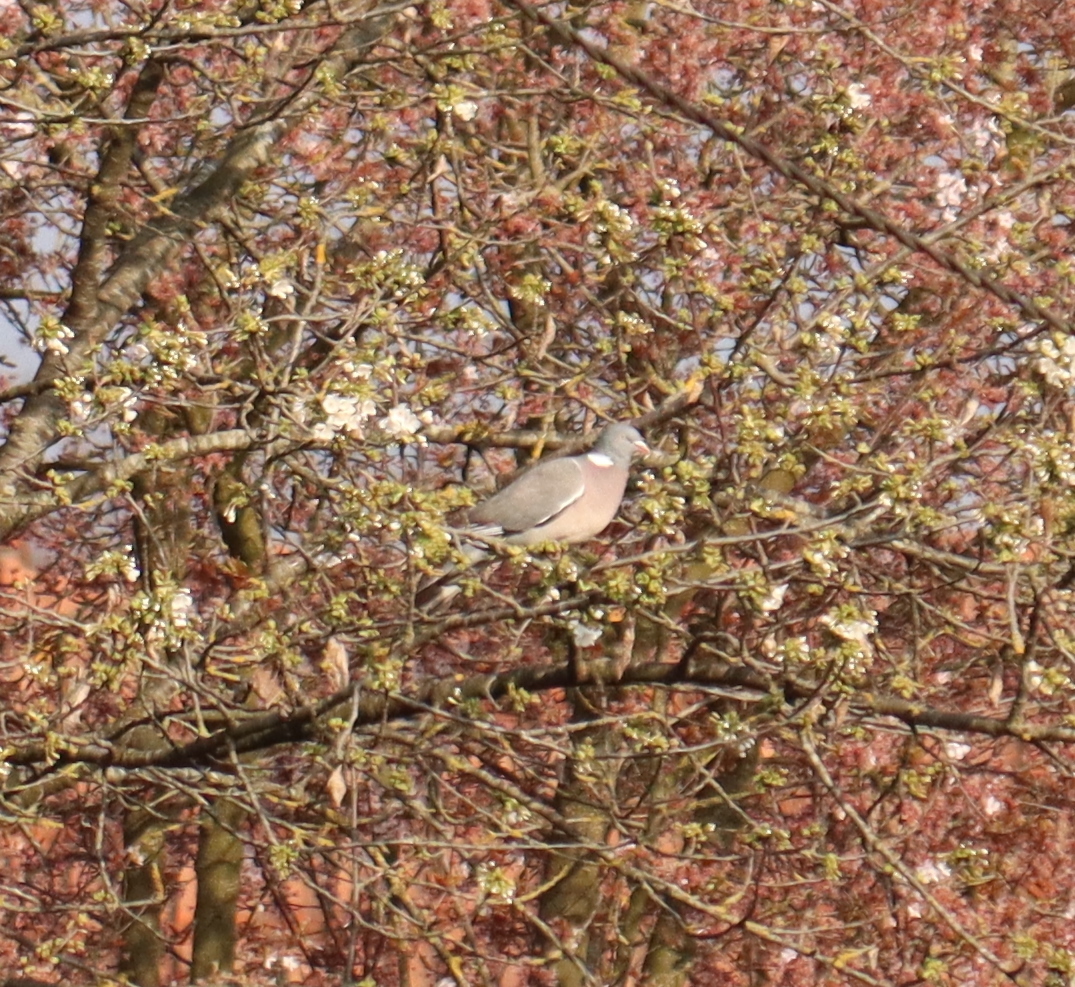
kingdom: Animalia
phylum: Chordata
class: Aves
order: Columbiformes
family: Columbidae
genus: Columba
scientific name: Columba palumbus
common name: Common wood pigeon
